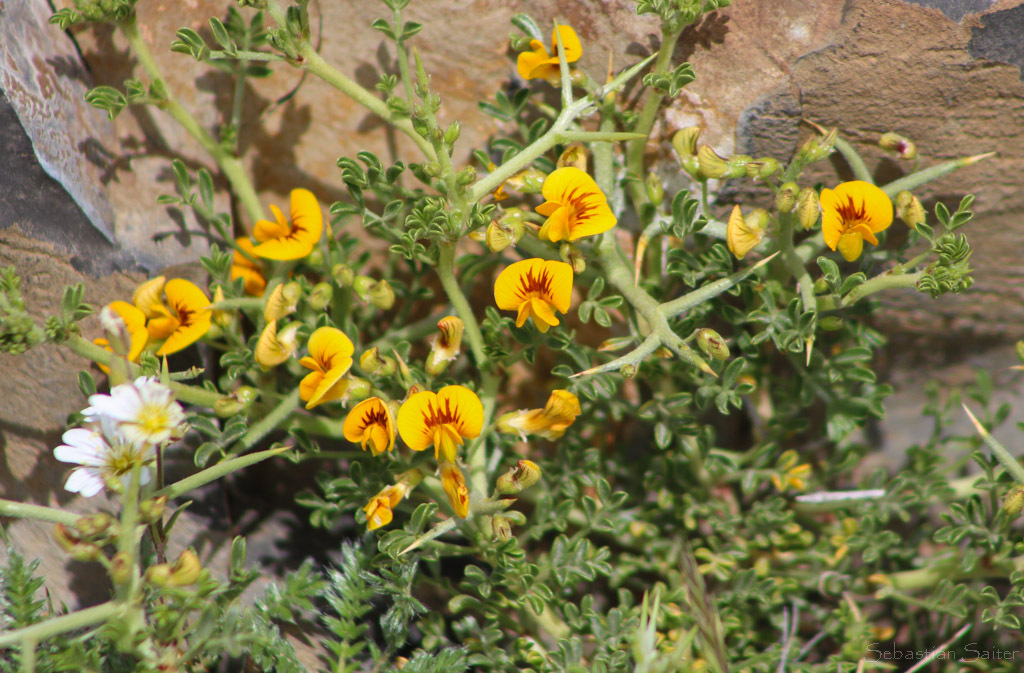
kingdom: Plantae
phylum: Tracheophyta
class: Magnoliopsida
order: Fabales
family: Fabaceae
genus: Adesmia
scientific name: Adesmia volckmannii
